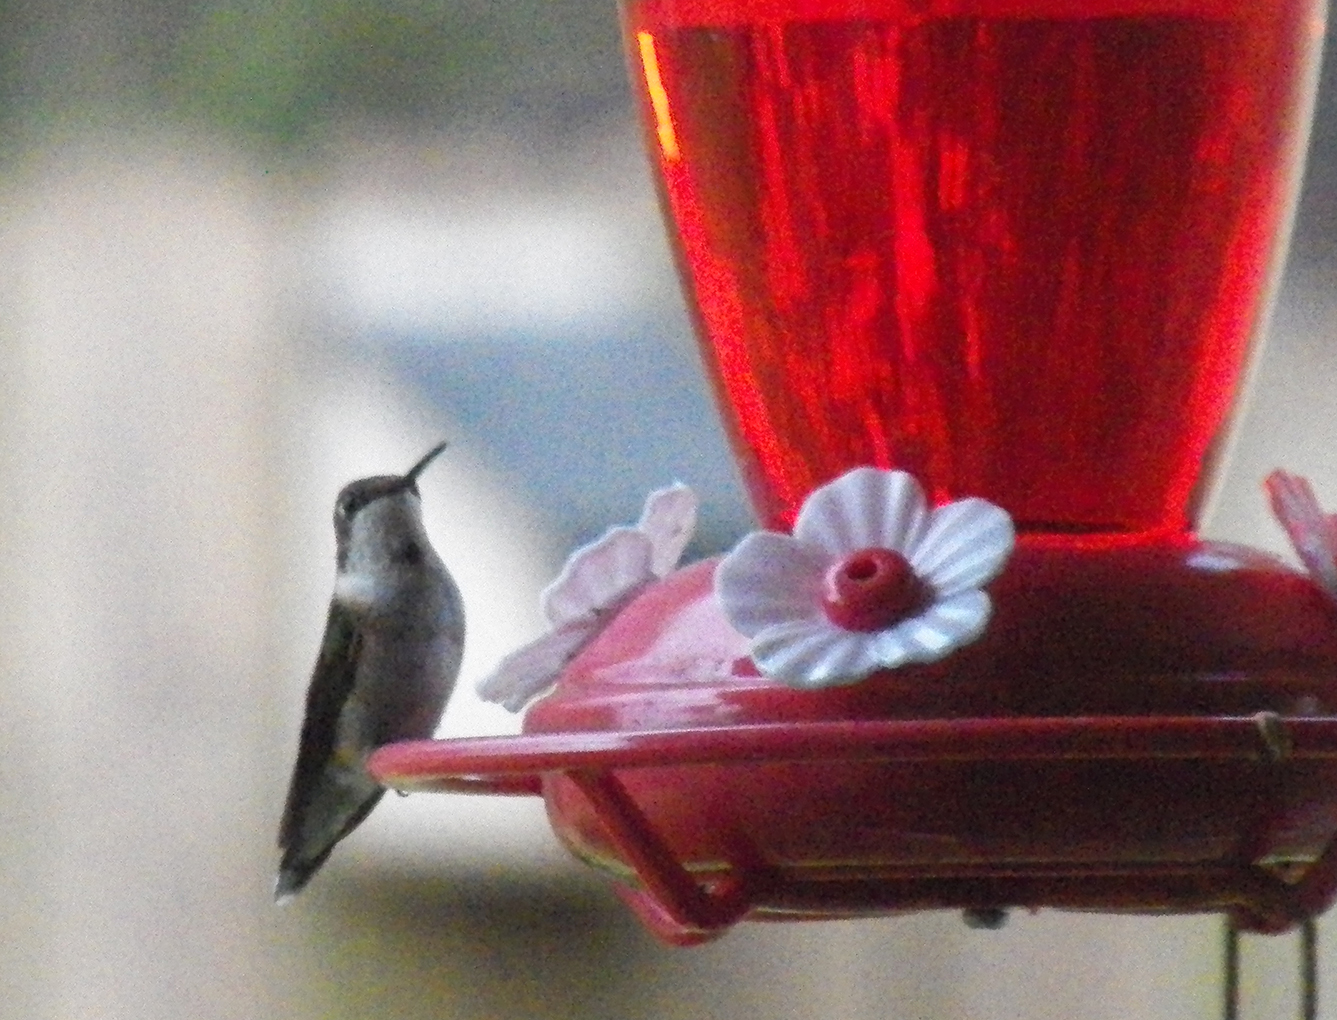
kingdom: Animalia
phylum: Chordata
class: Aves
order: Apodiformes
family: Trochilidae
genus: Archilochus
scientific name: Archilochus colubris
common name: Ruby-throated hummingbird
